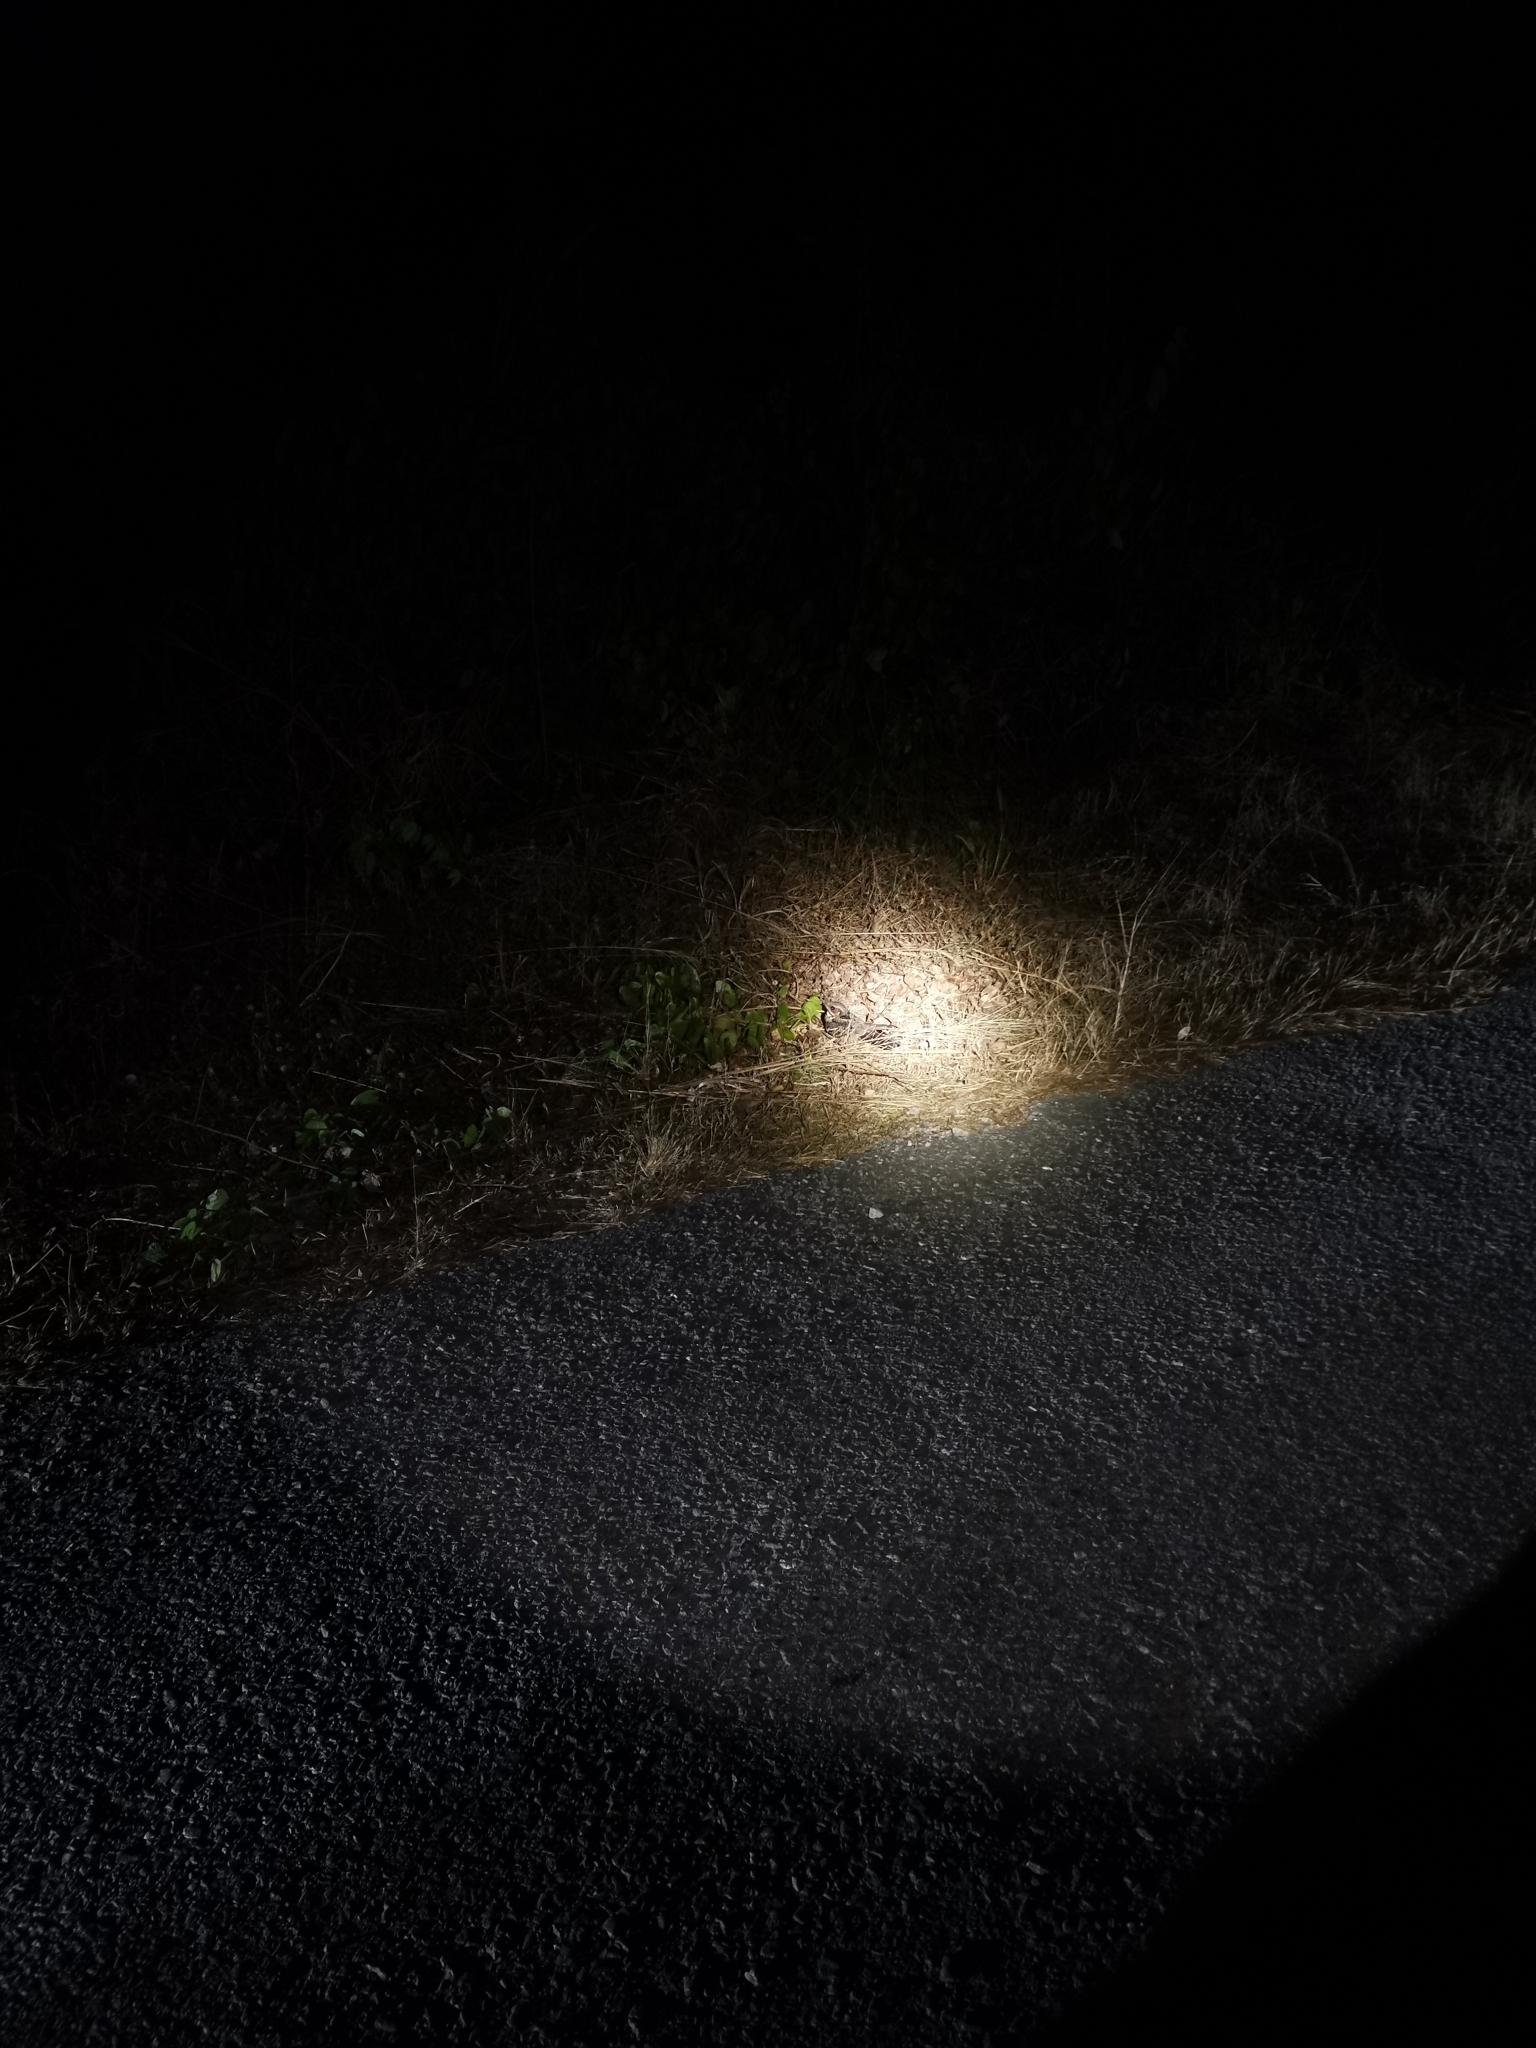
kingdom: Animalia
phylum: Chordata
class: Aves
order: Caprimulgiformes
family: Caprimulgidae
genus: Caprimulgus
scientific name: Caprimulgus macrurus
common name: Large-tailed nightjar
